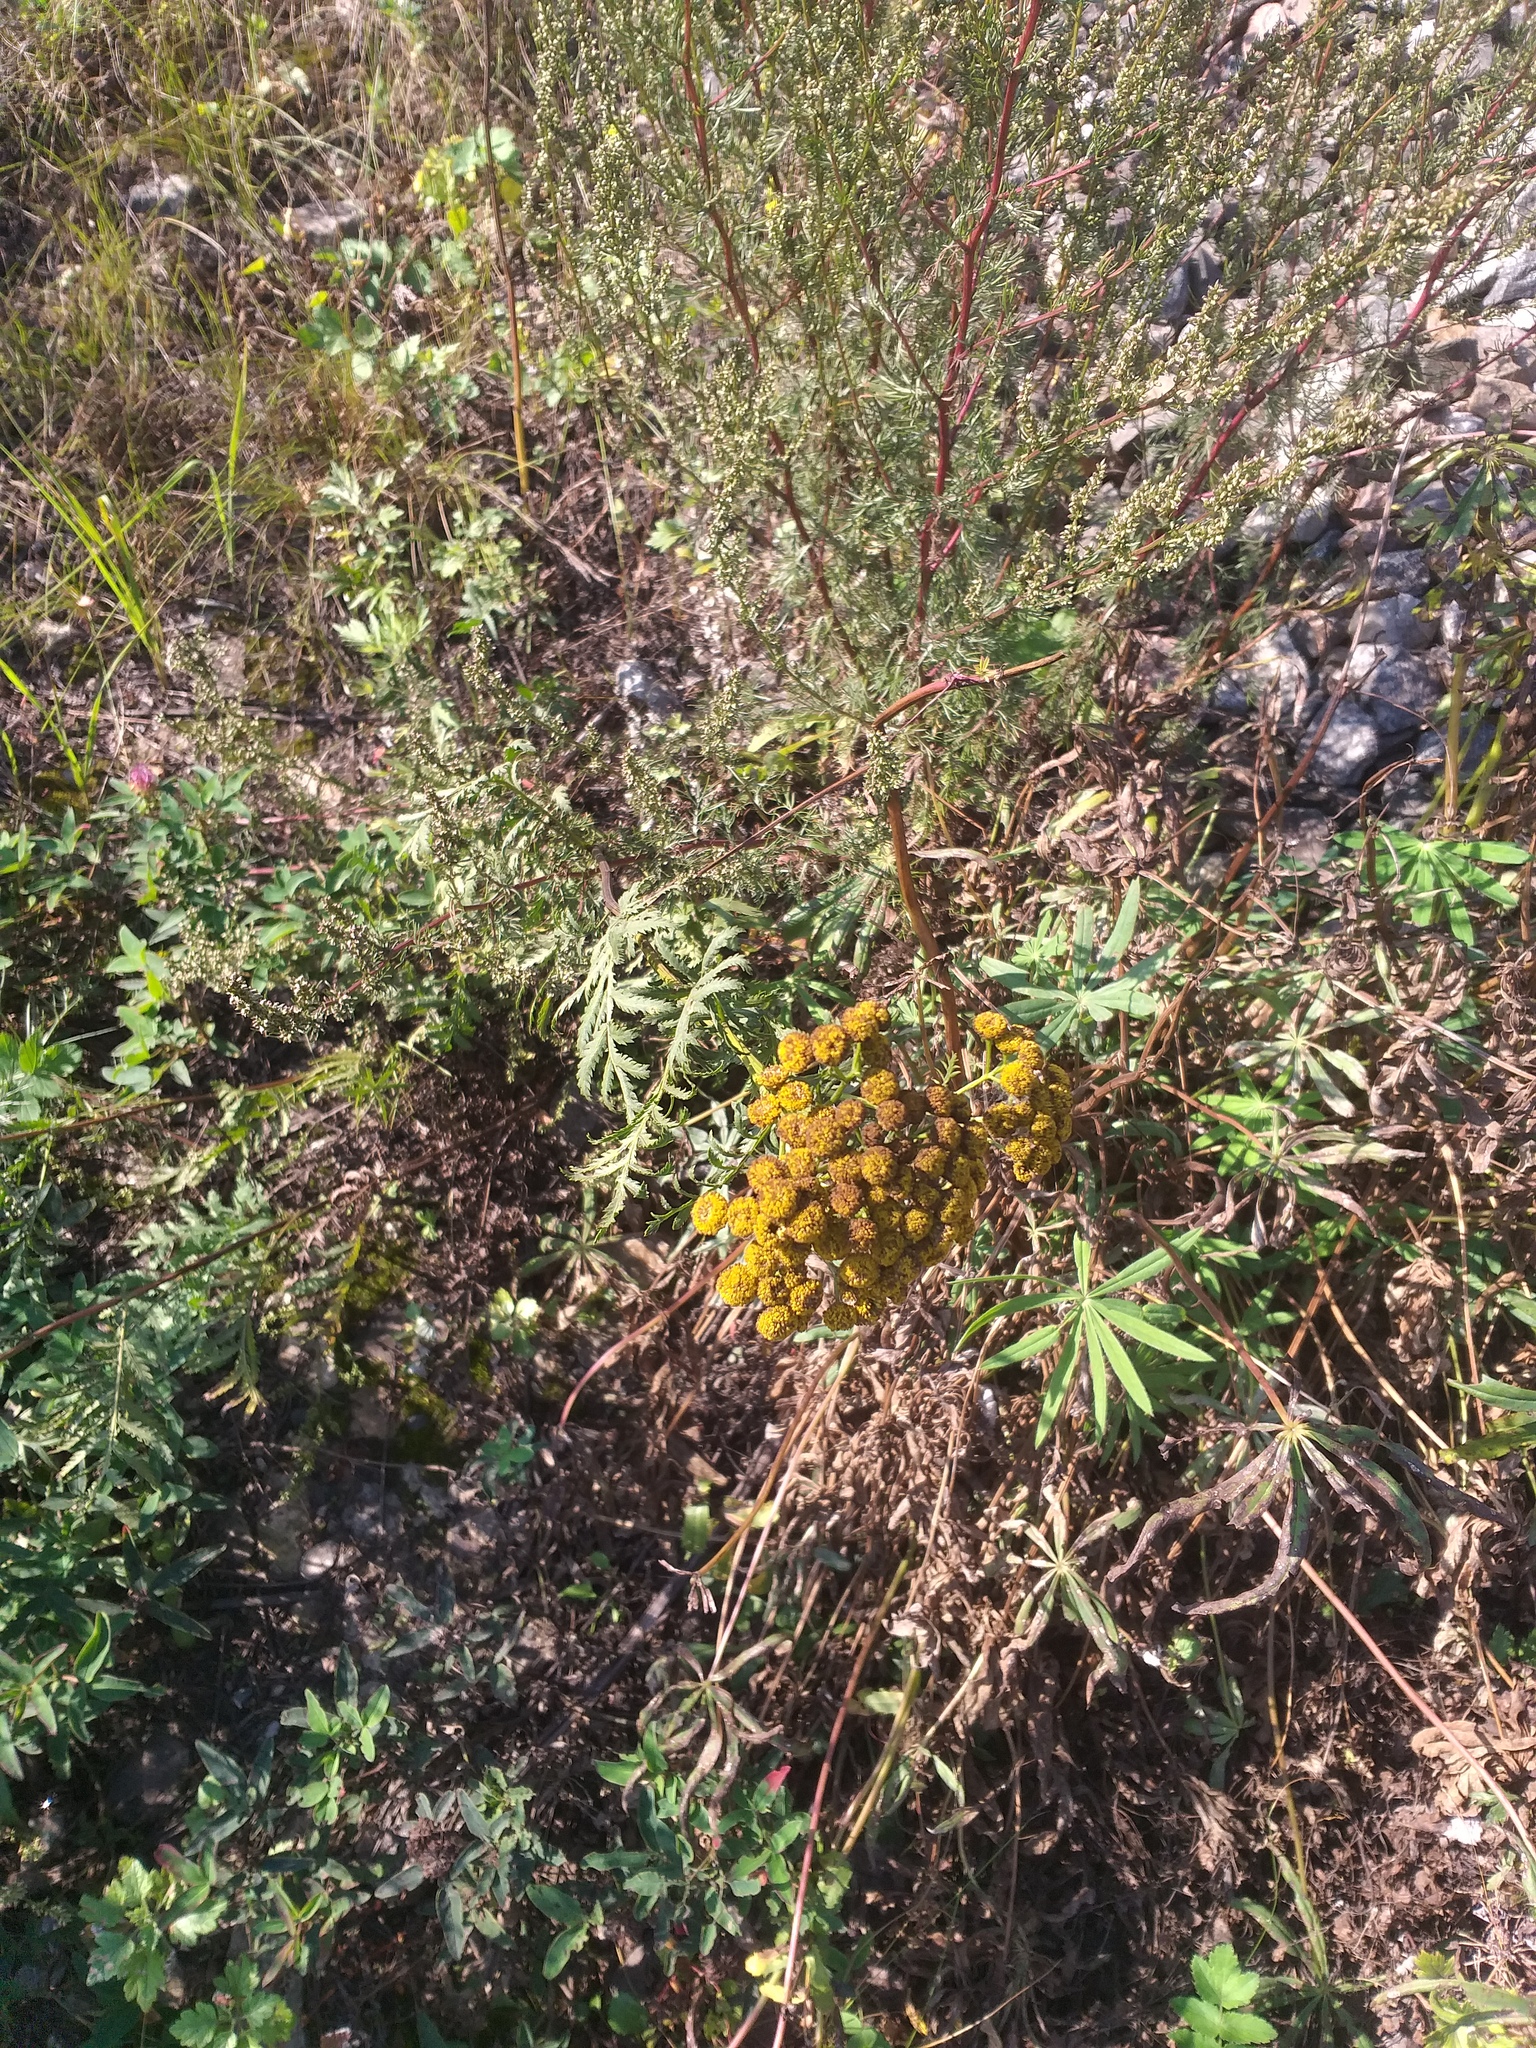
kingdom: Plantae
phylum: Tracheophyta
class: Magnoliopsida
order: Asterales
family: Asteraceae
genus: Tanacetum
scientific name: Tanacetum vulgare
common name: Common tansy
